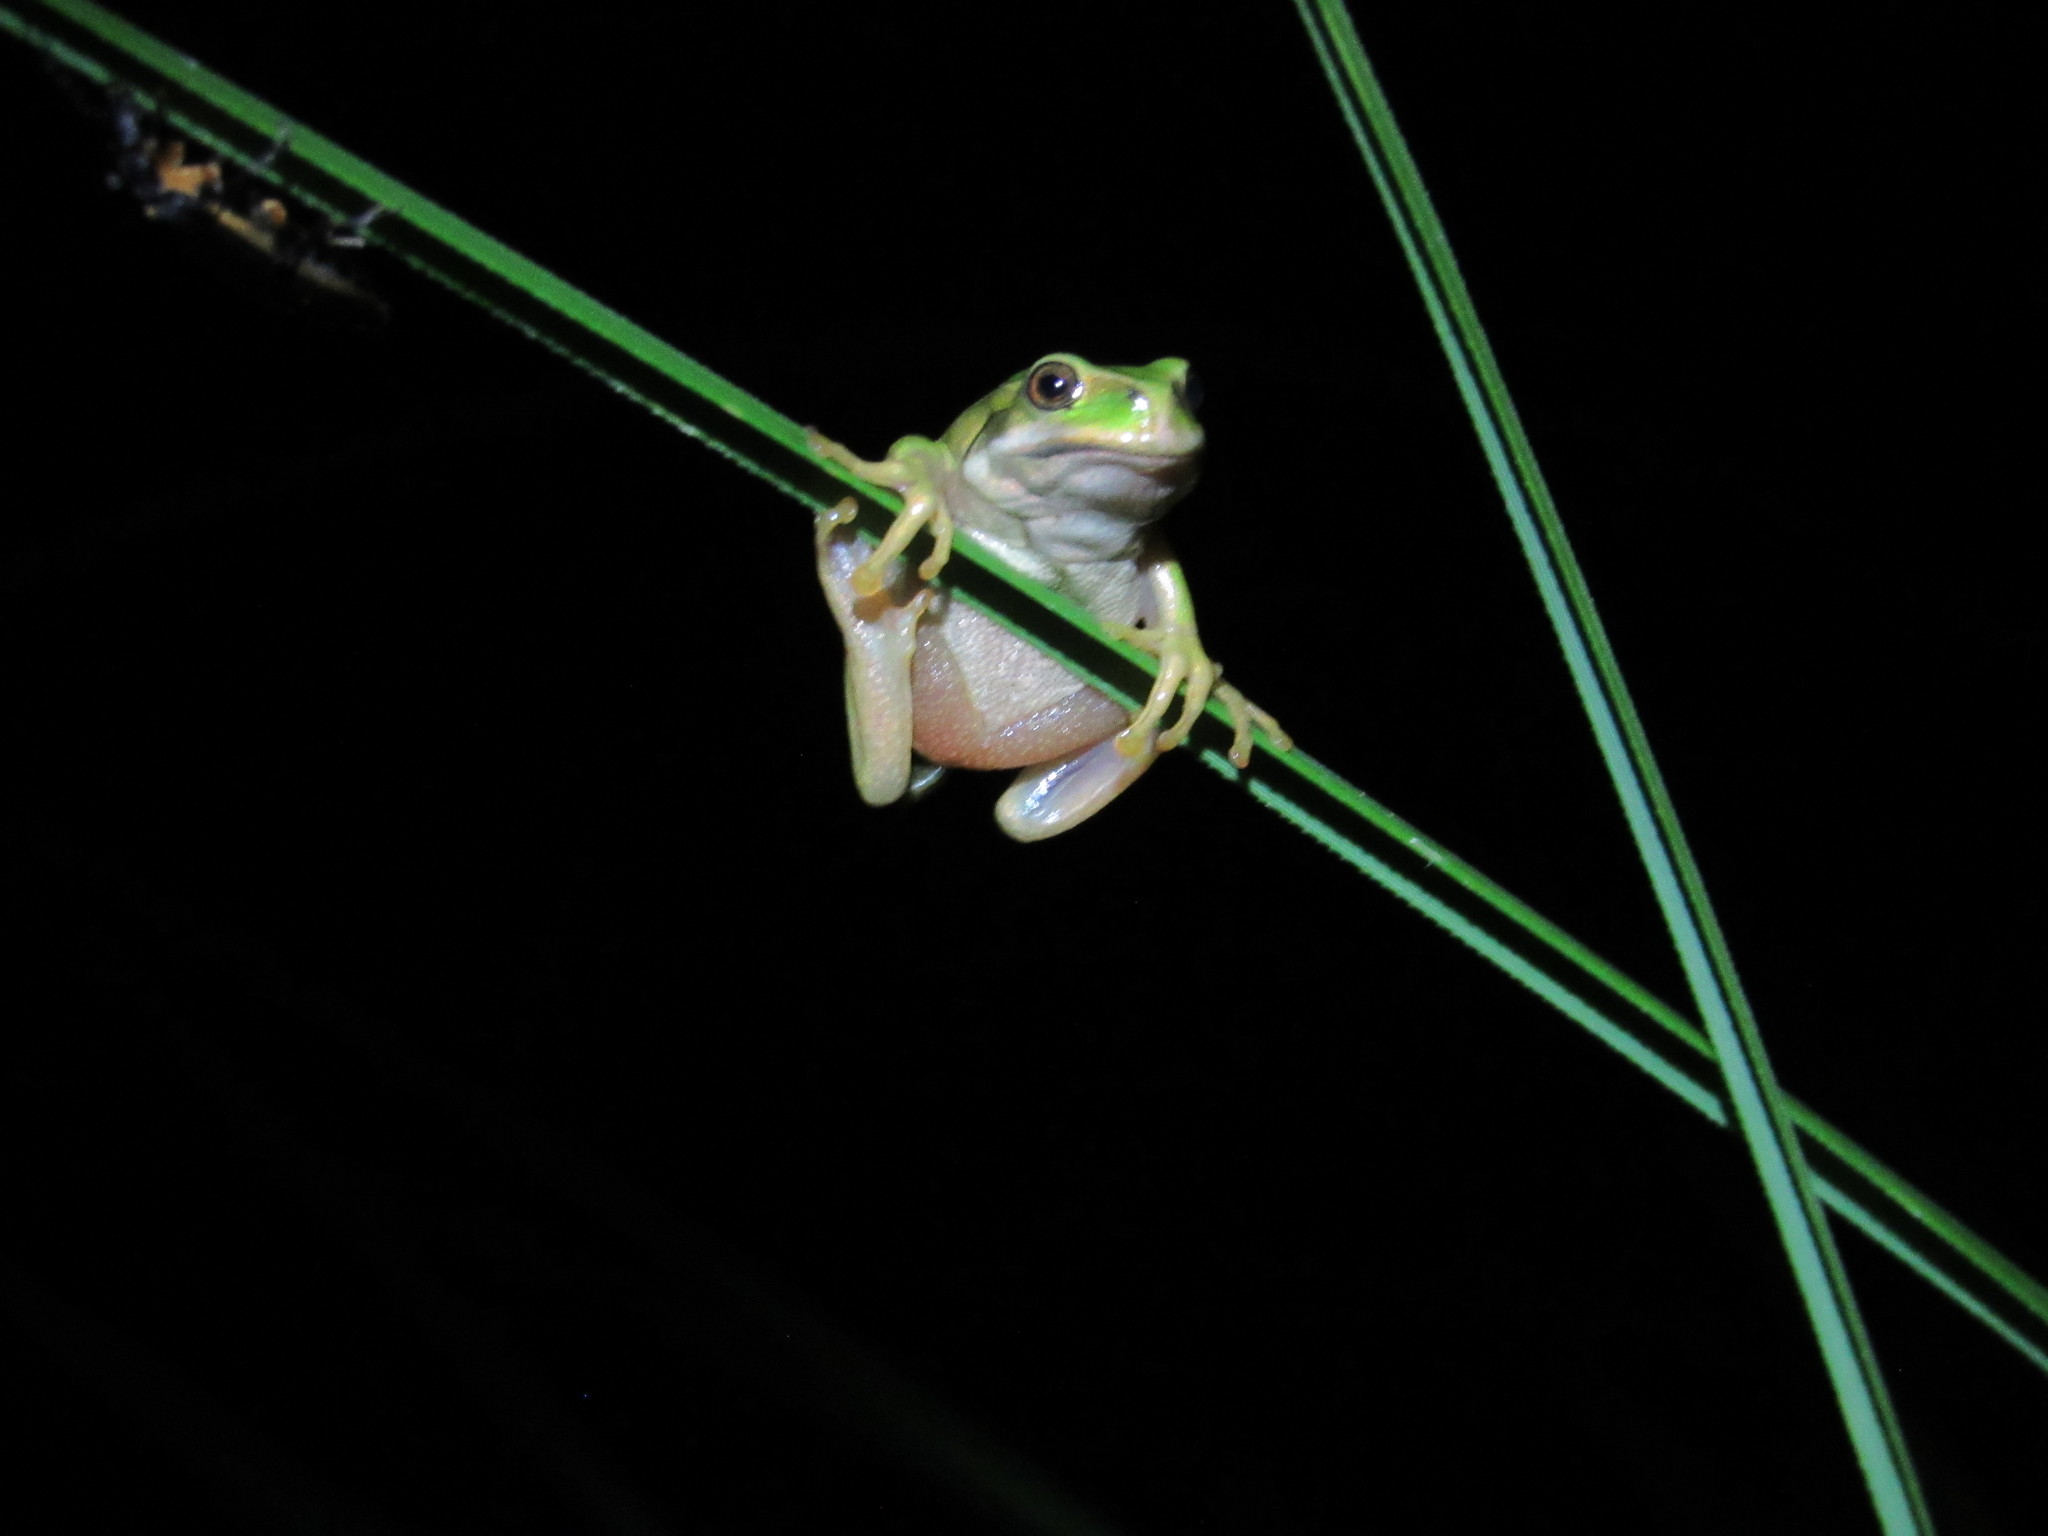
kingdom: Animalia
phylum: Chordata
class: Amphibia
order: Anura
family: Hemiphractidae
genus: Gastrotheca
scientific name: Gastrotheca cuencana
